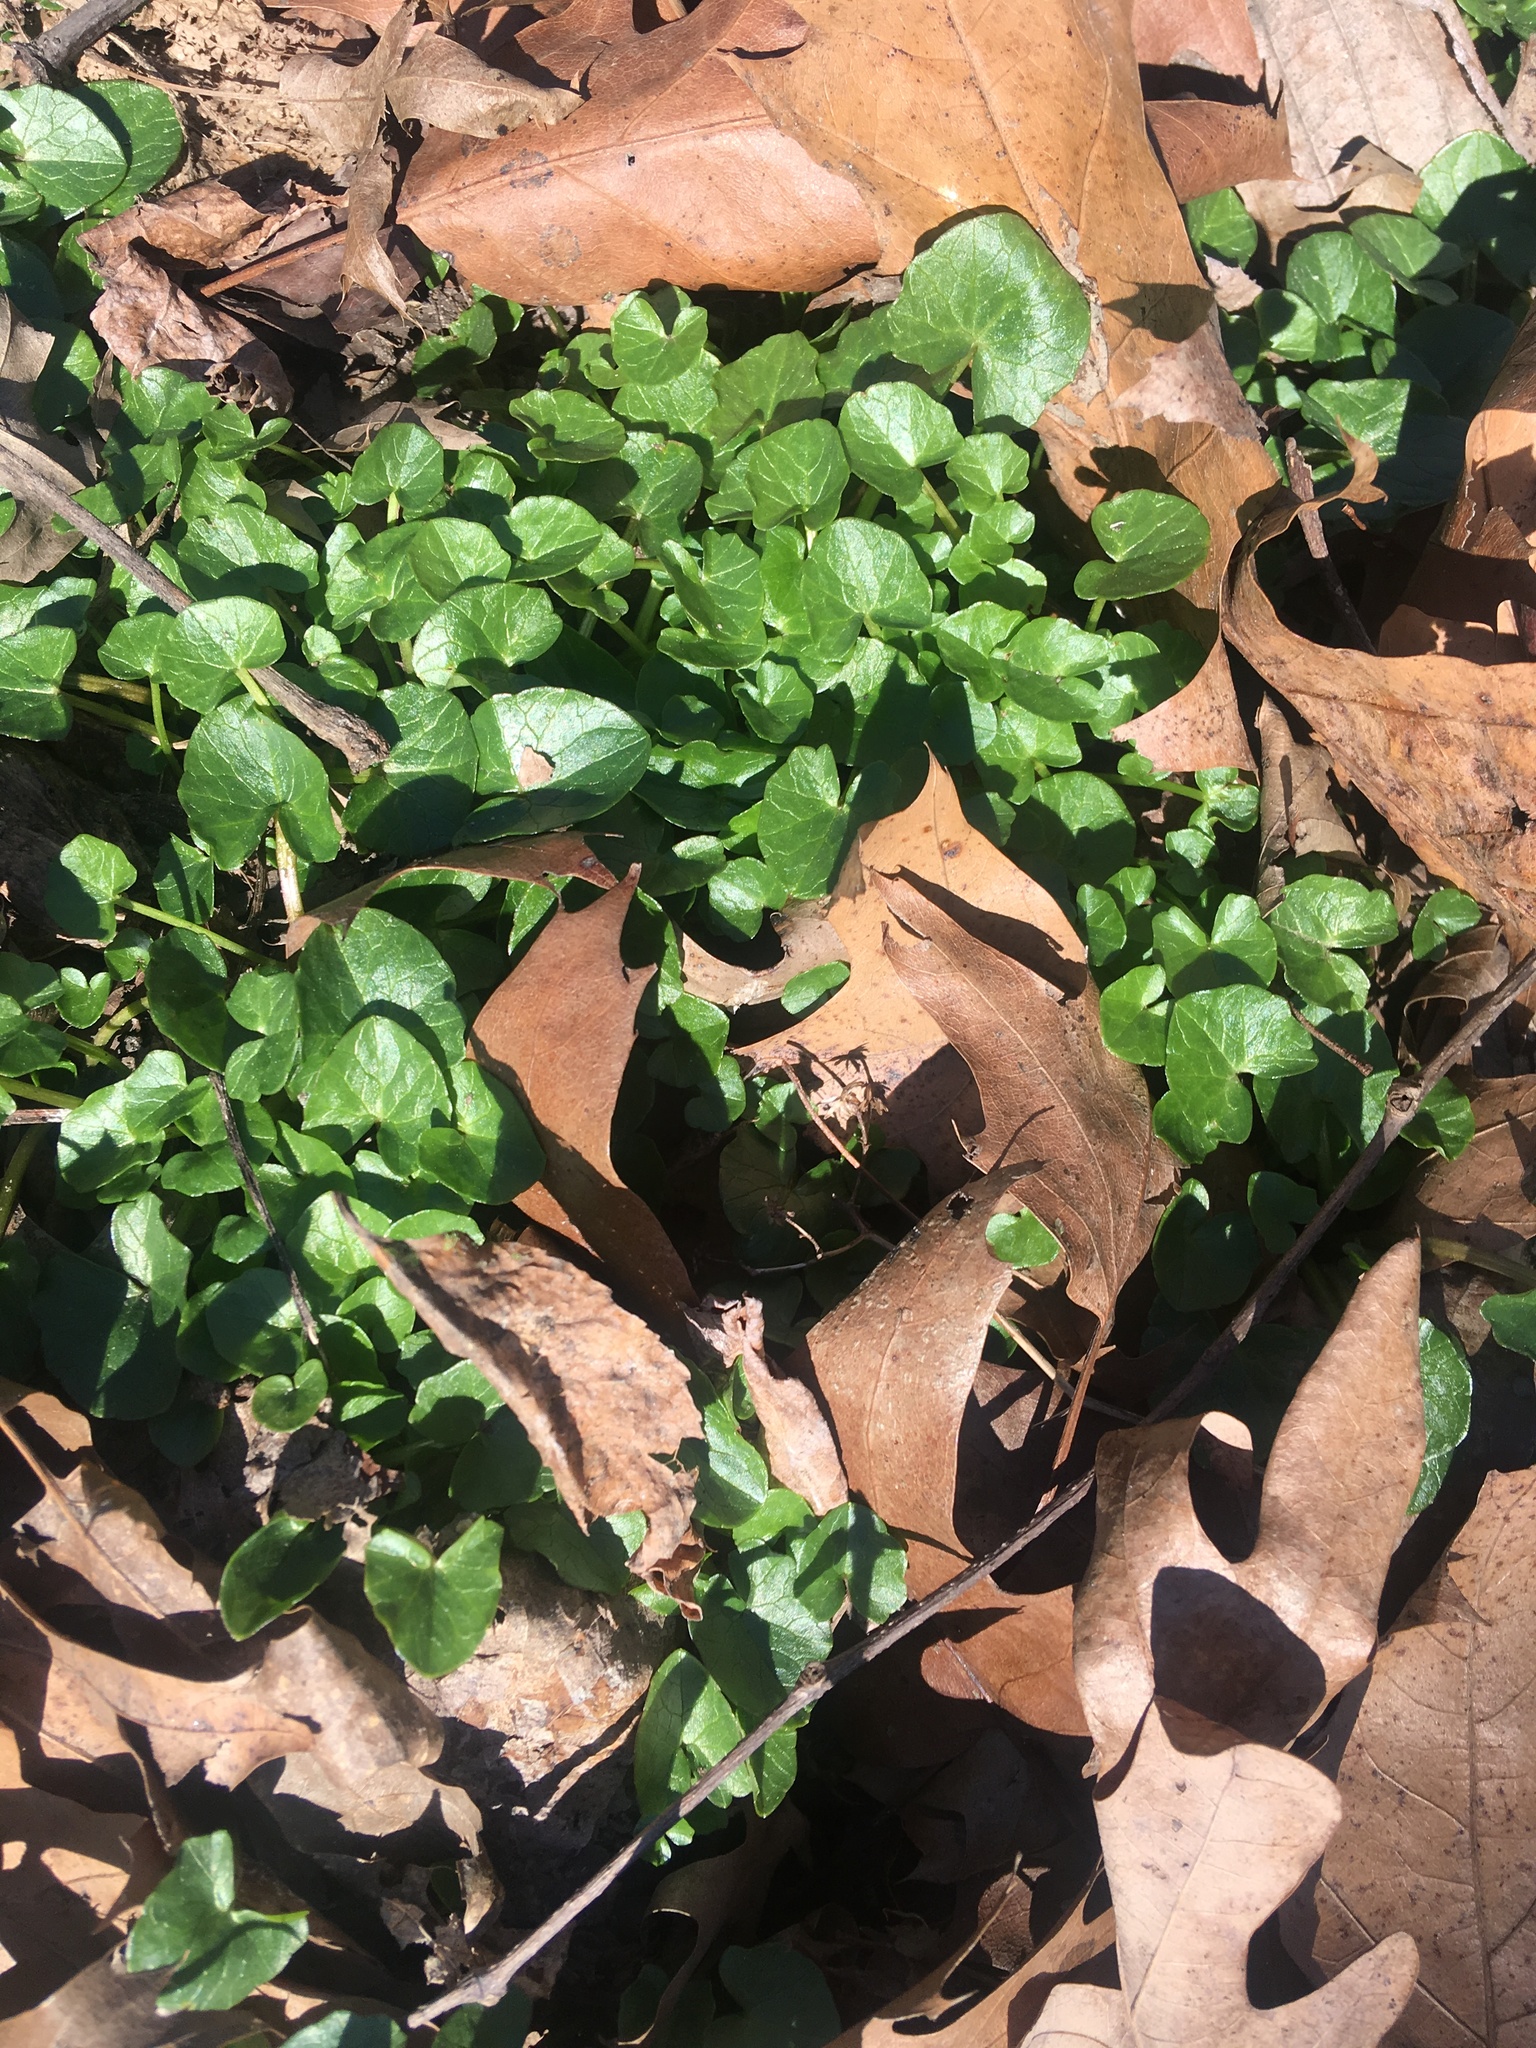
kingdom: Plantae
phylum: Tracheophyta
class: Magnoliopsida
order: Ranunculales
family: Ranunculaceae
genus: Ficaria
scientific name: Ficaria verna
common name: Lesser celandine
